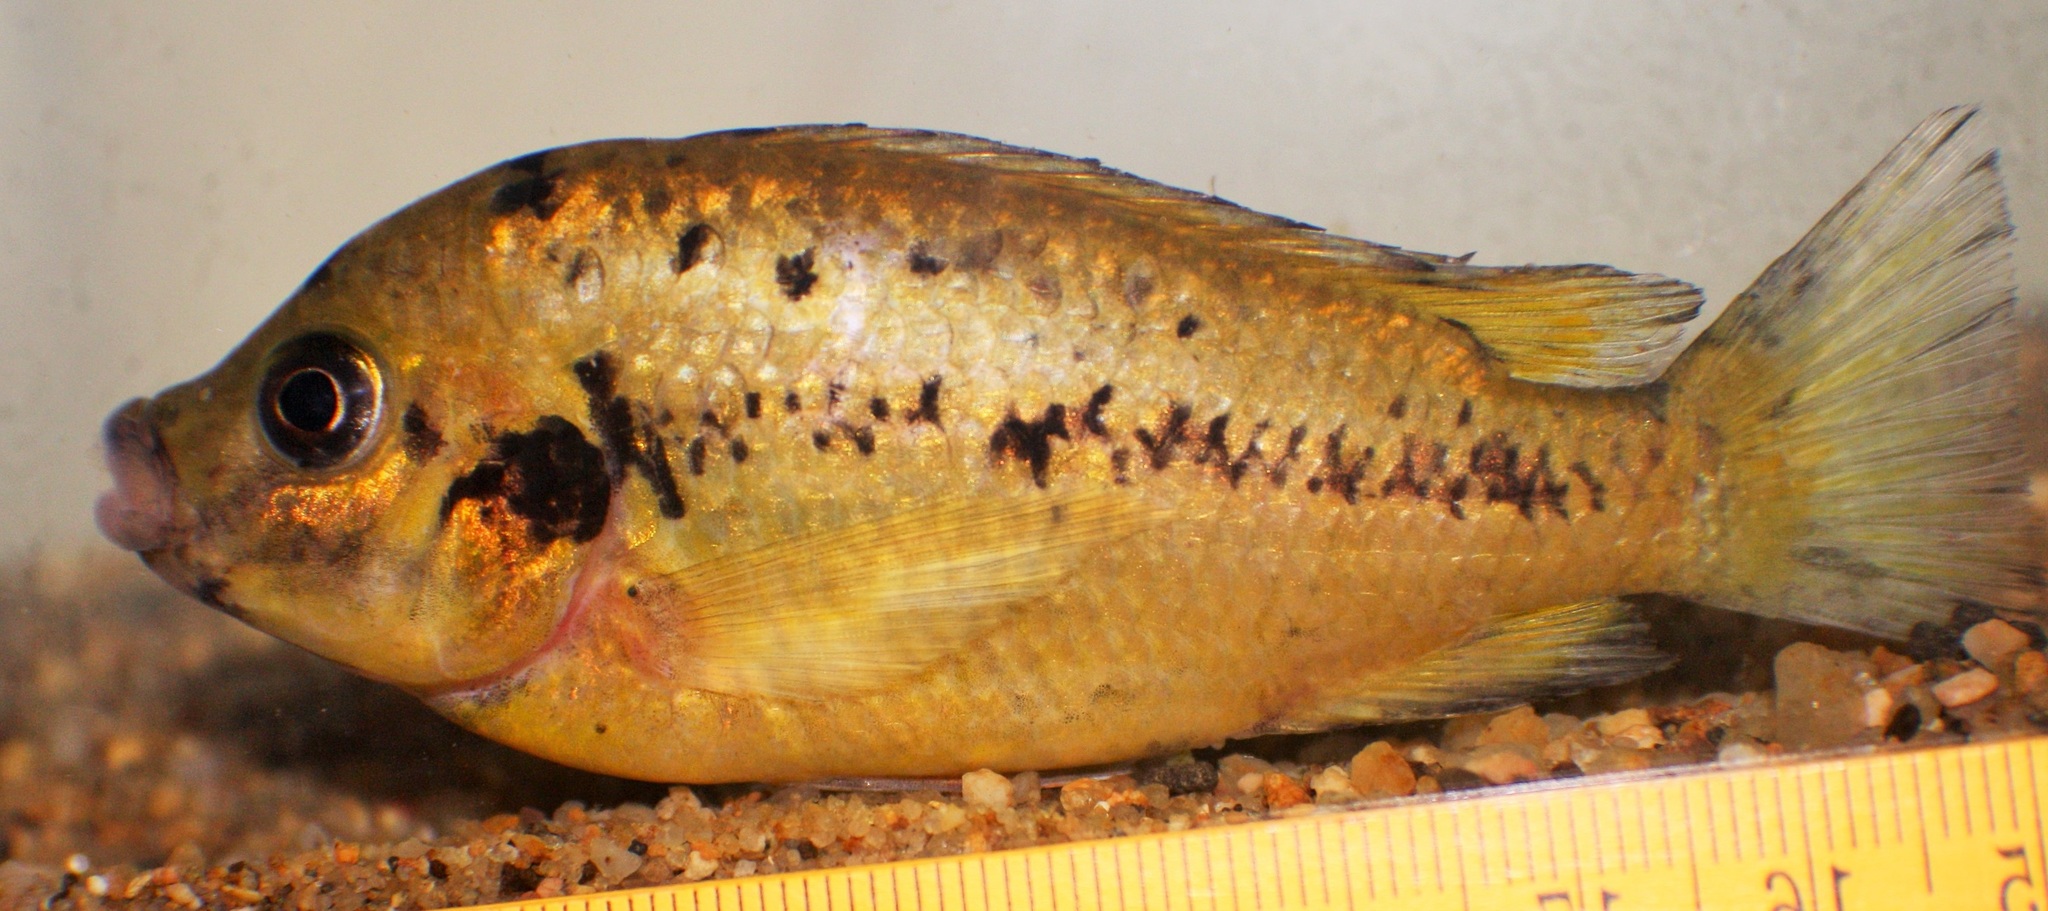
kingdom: Animalia
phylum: Chordata
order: Perciformes
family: Cichlidae
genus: Pungu
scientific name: Pungu maclareni
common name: Pungu
